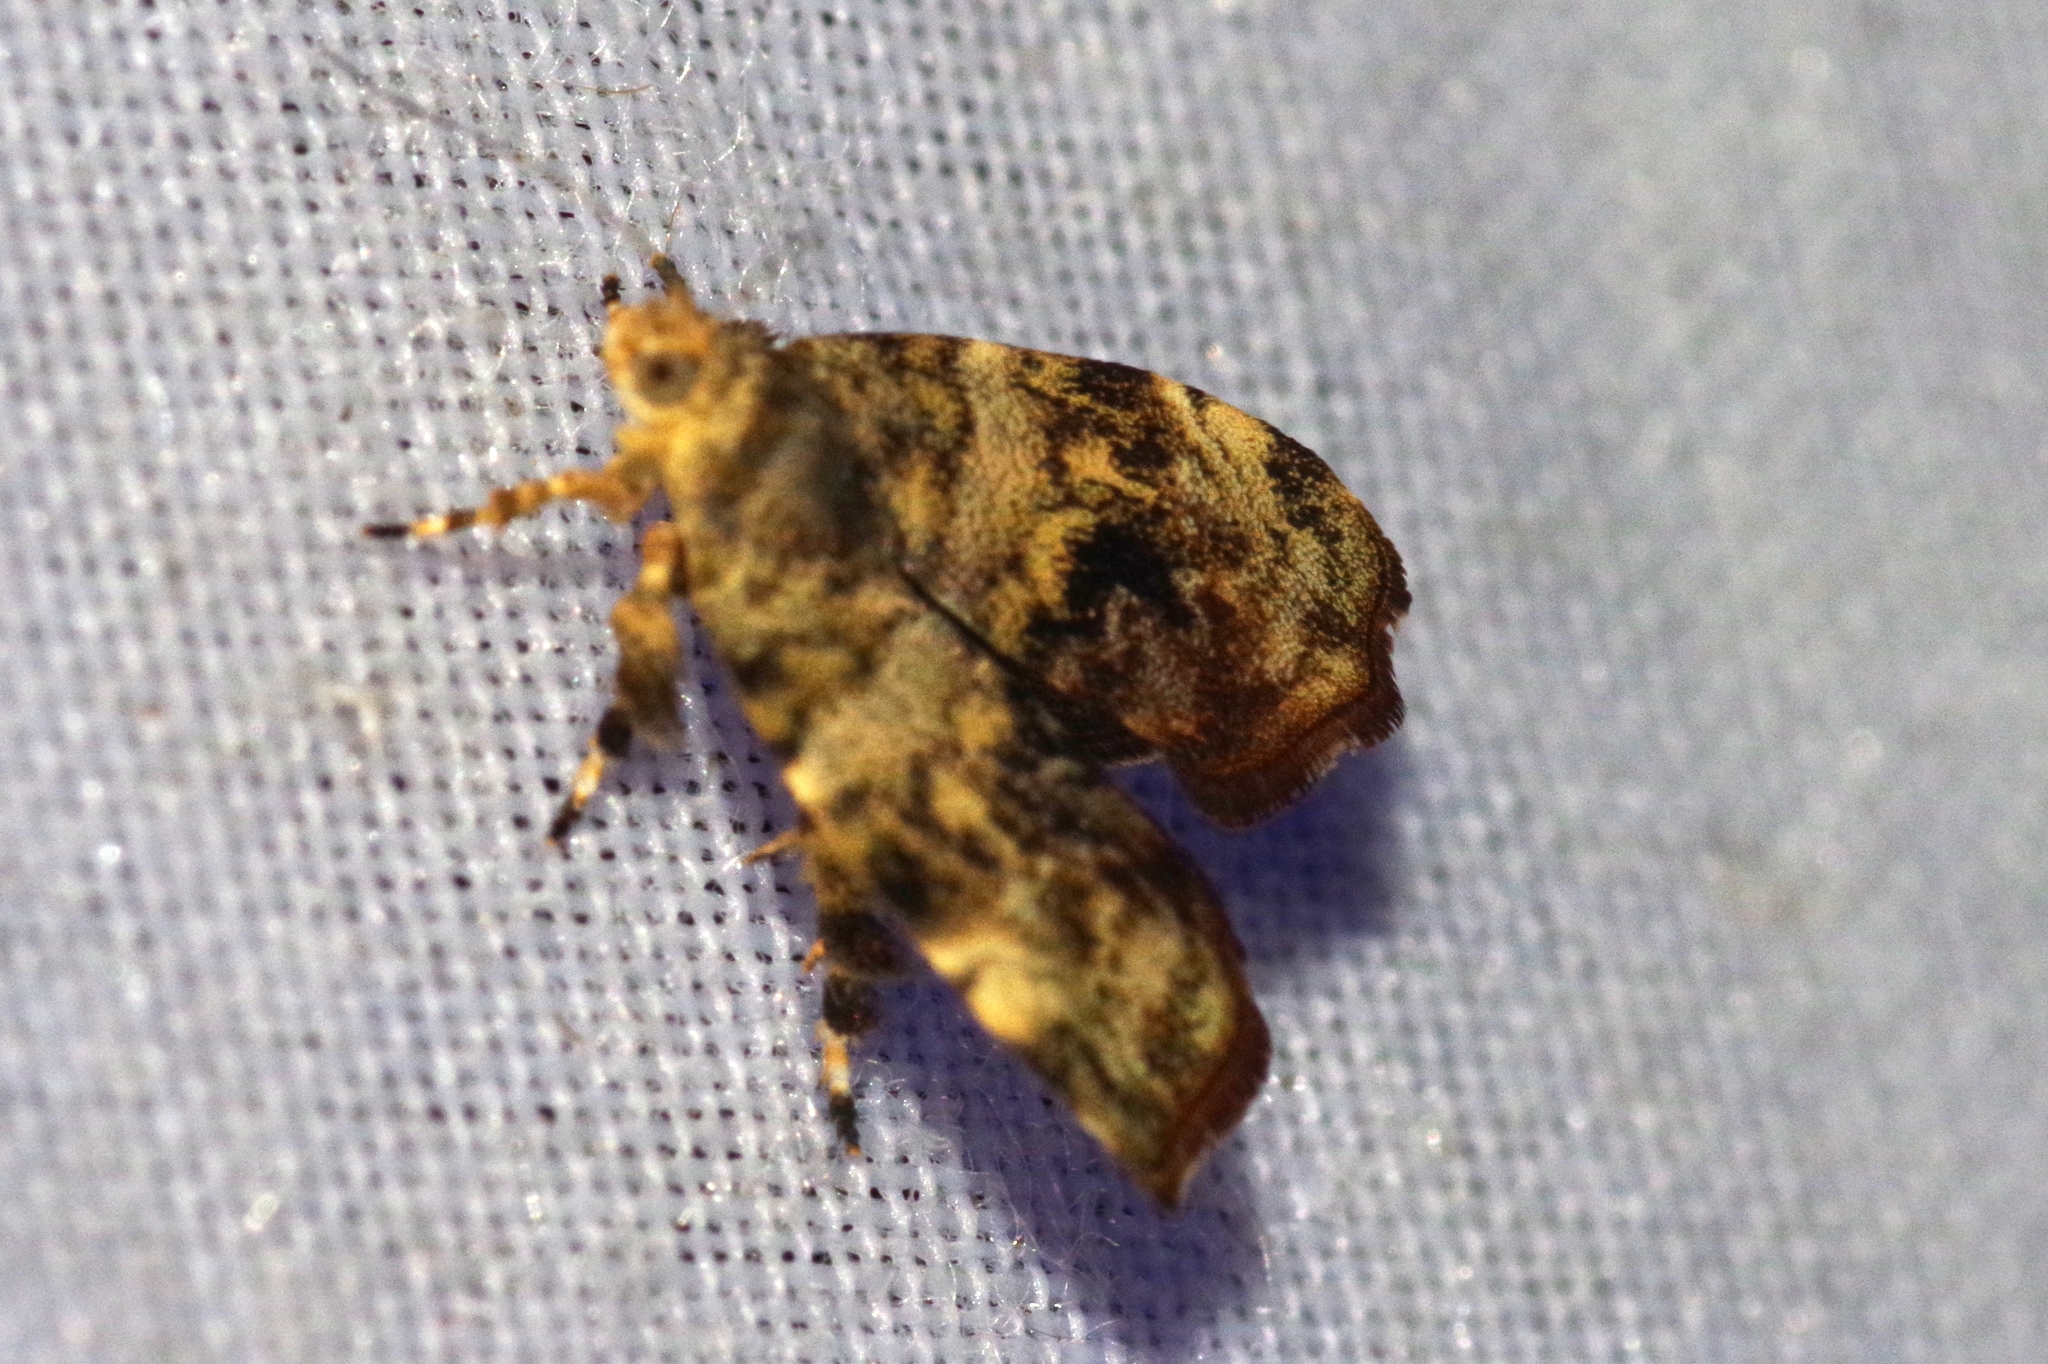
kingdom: Animalia
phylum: Arthropoda
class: Insecta
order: Lepidoptera
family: Choreutidae
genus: Choreutis
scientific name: Choreutis
